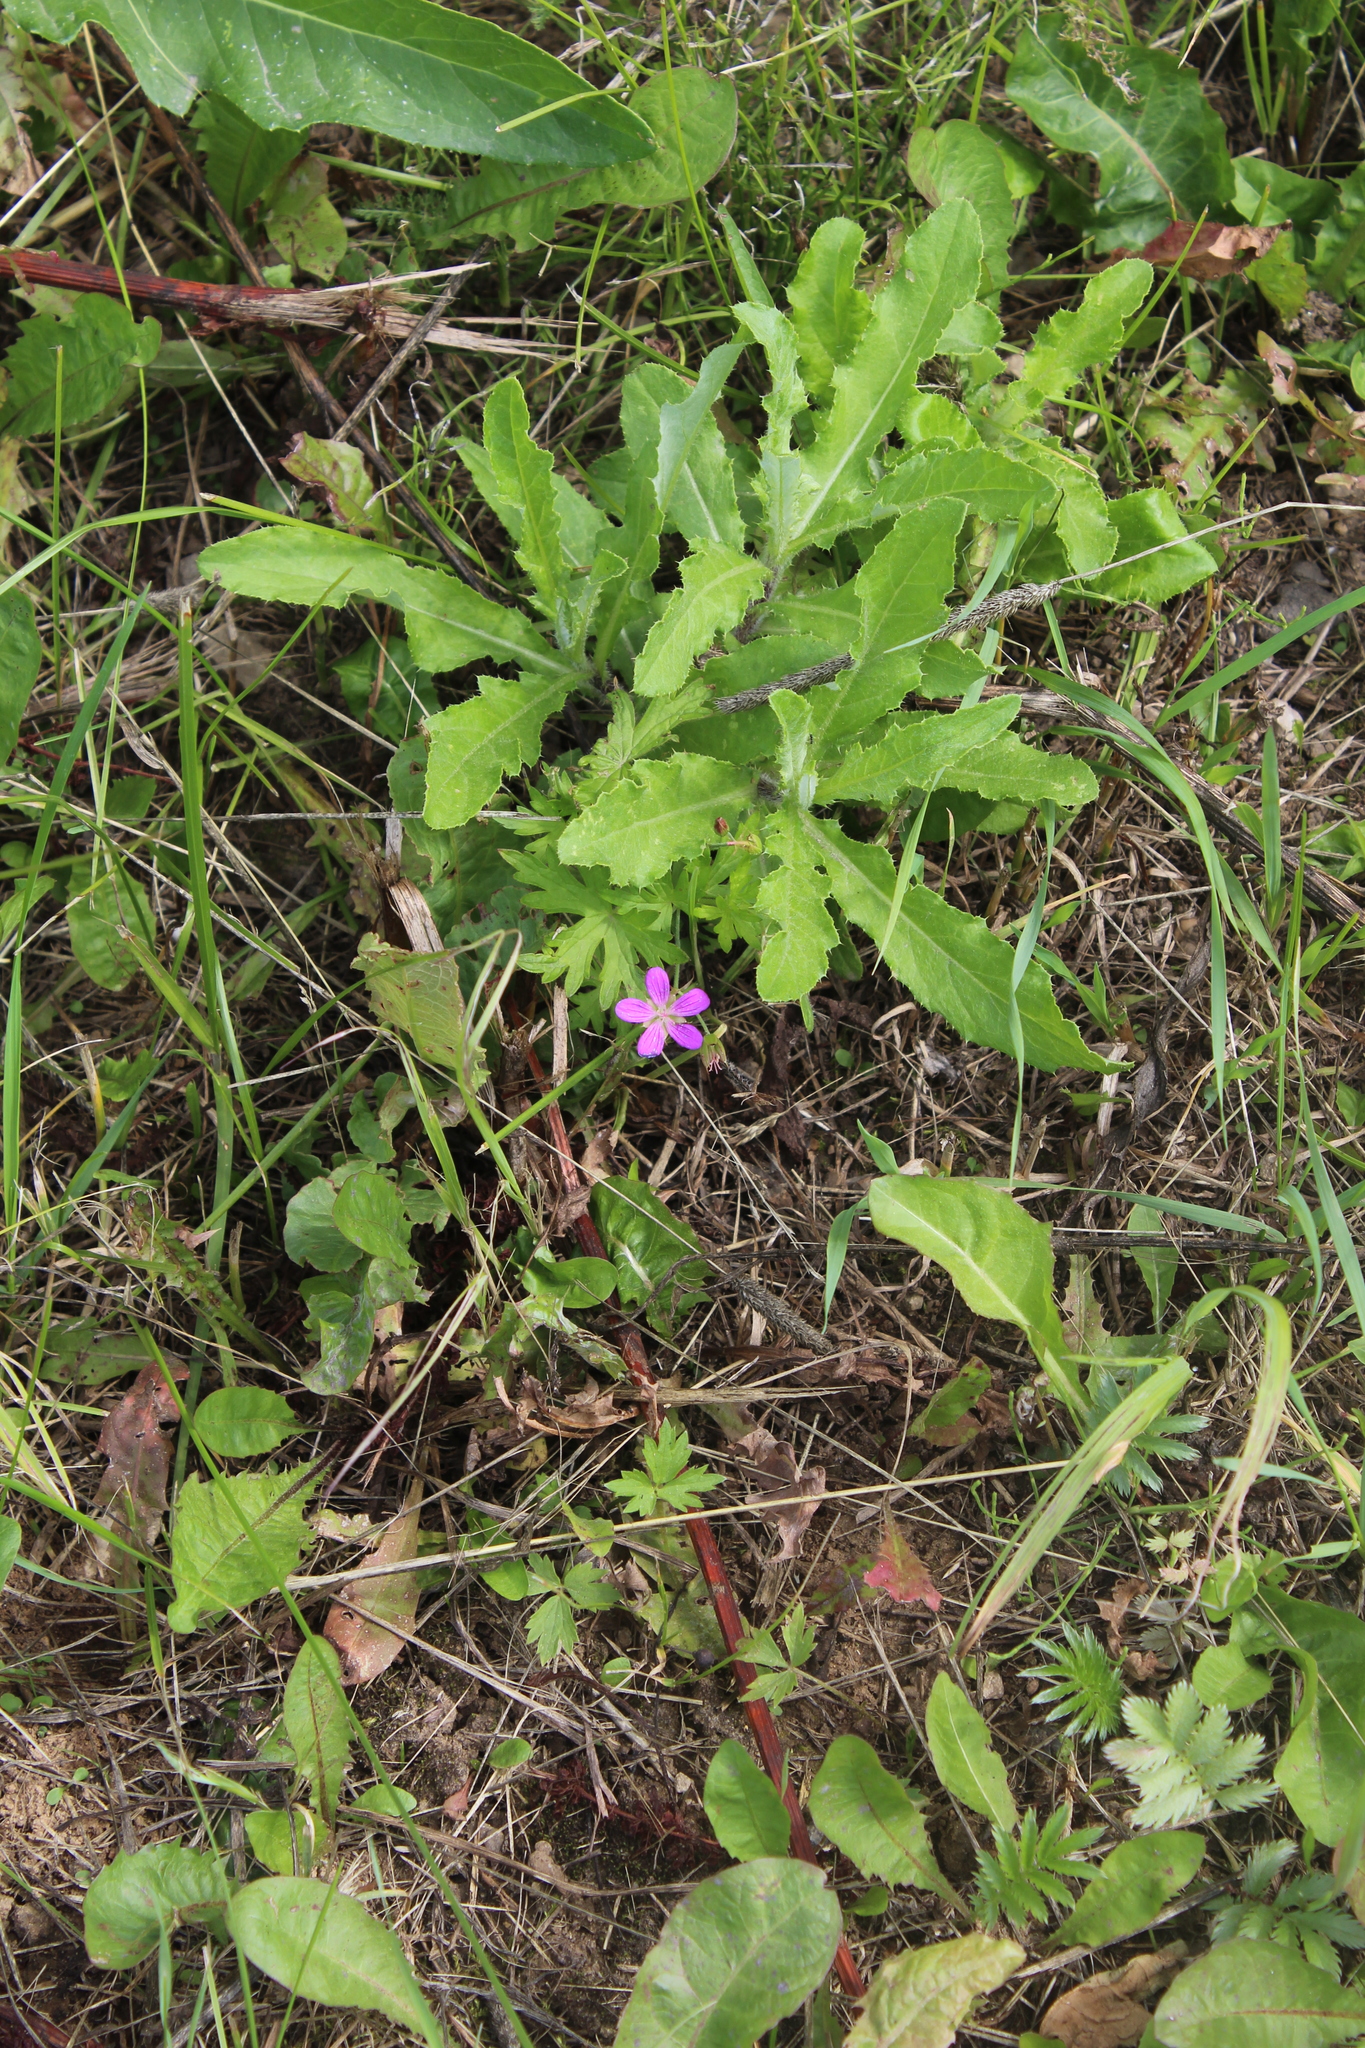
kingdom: Plantae
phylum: Tracheophyta
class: Magnoliopsida
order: Geraniales
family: Geraniaceae
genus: Geranium
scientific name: Geranium palustre
